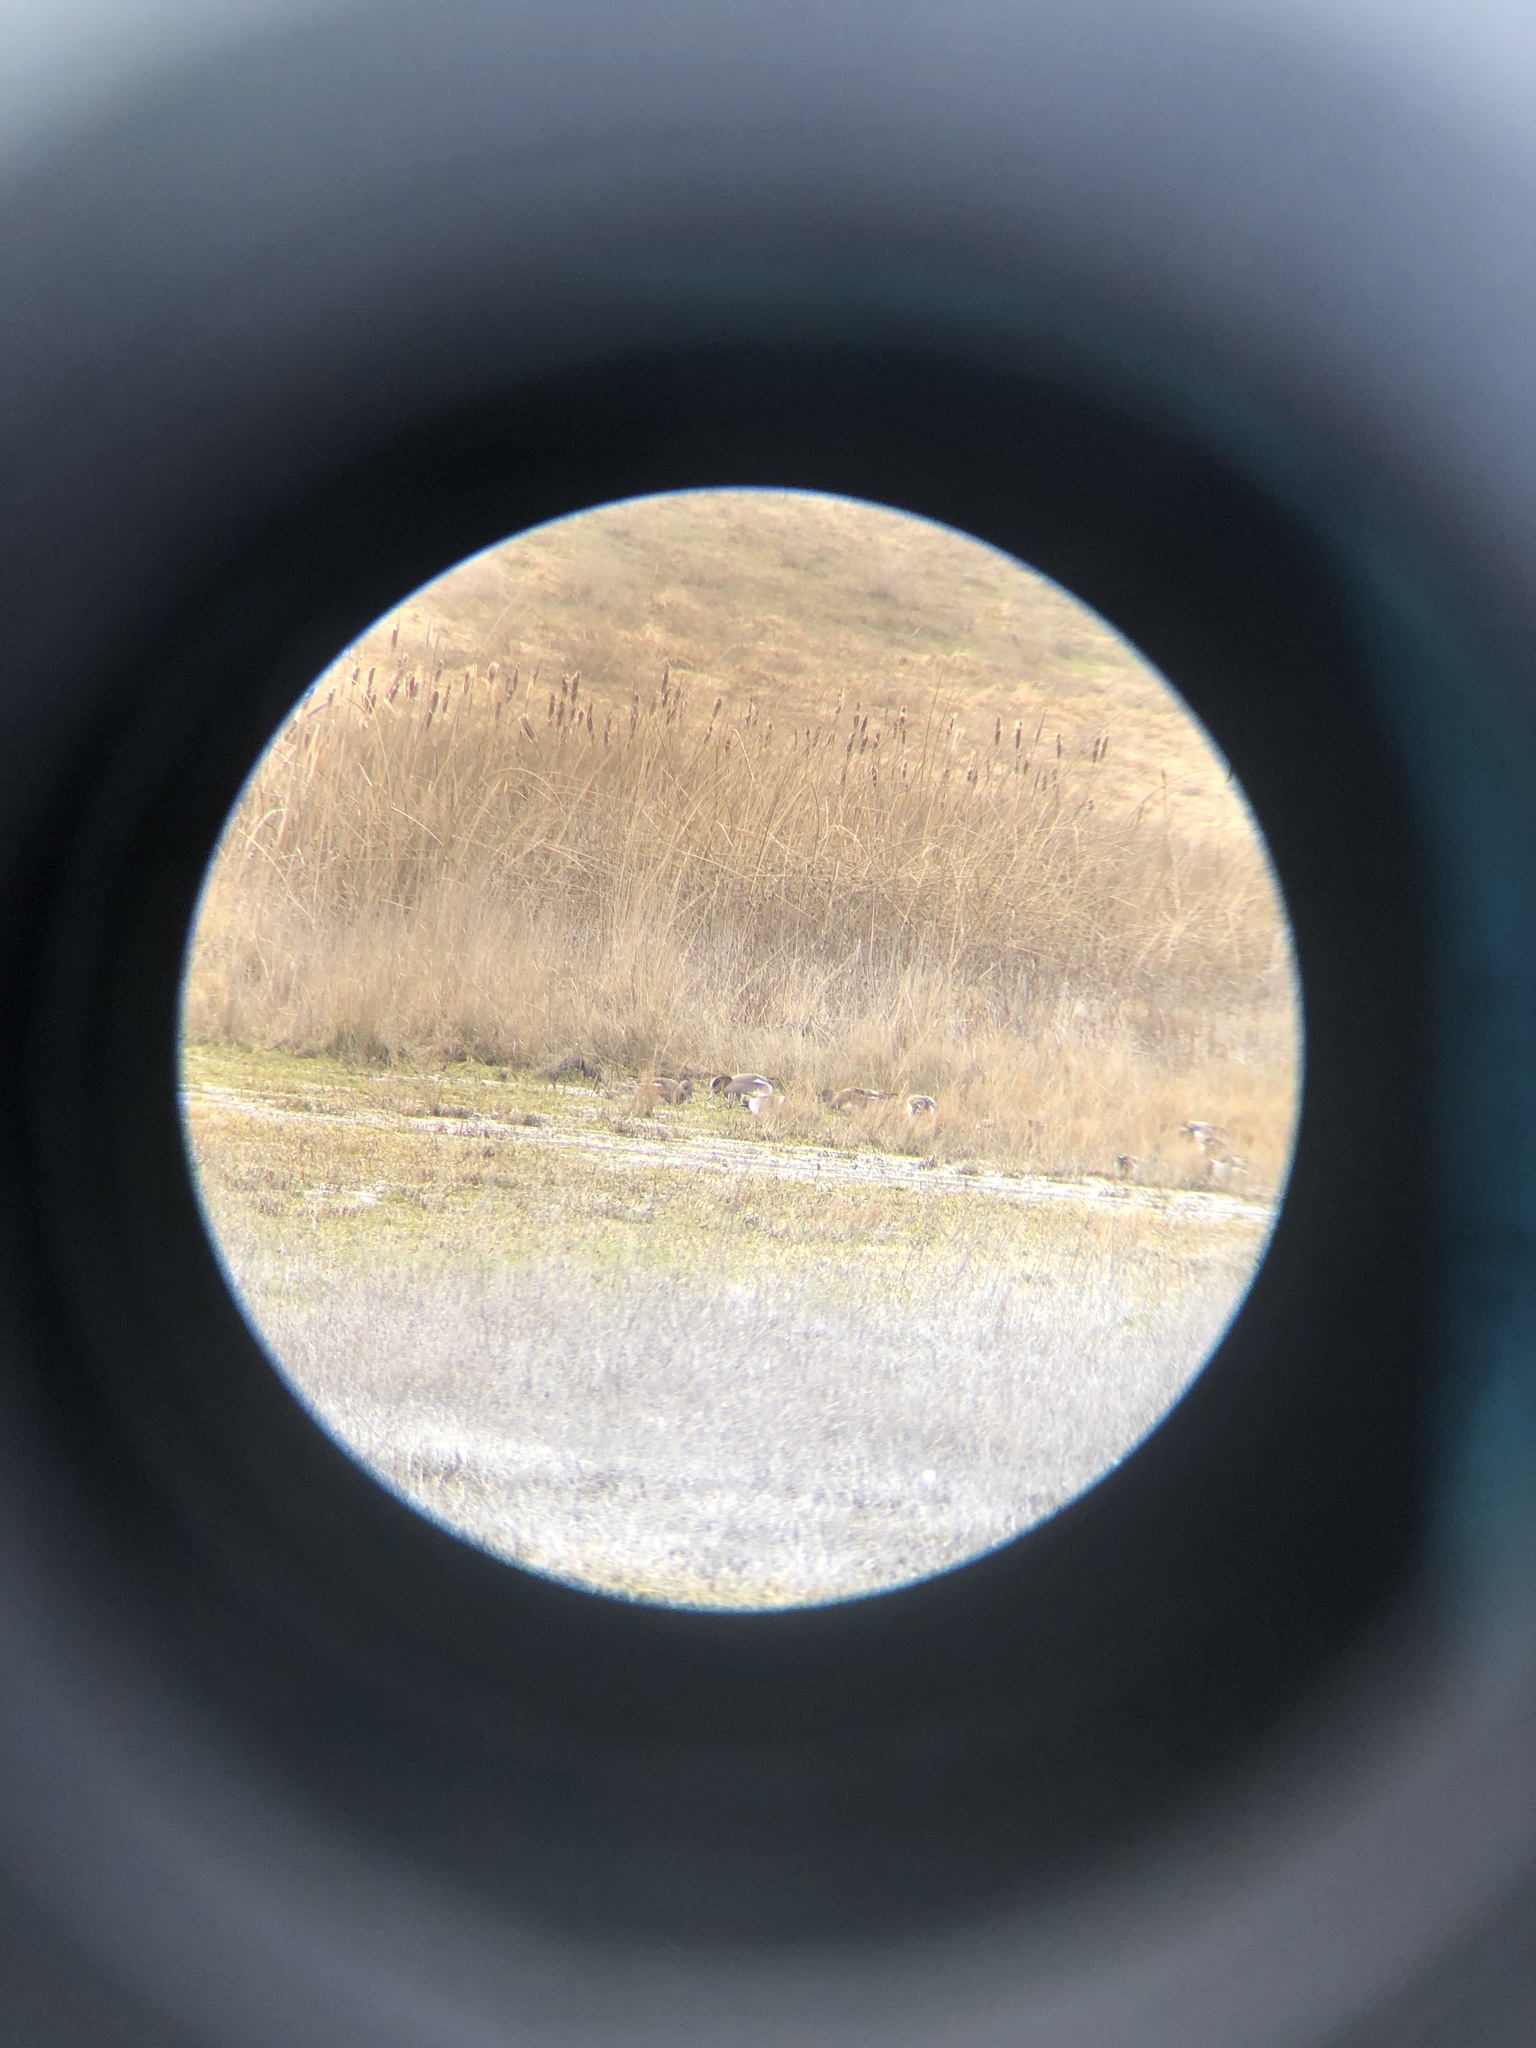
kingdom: Animalia
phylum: Chordata
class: Aves
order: Anseriformes
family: Anatidae
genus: Mareca
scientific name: Mareca
